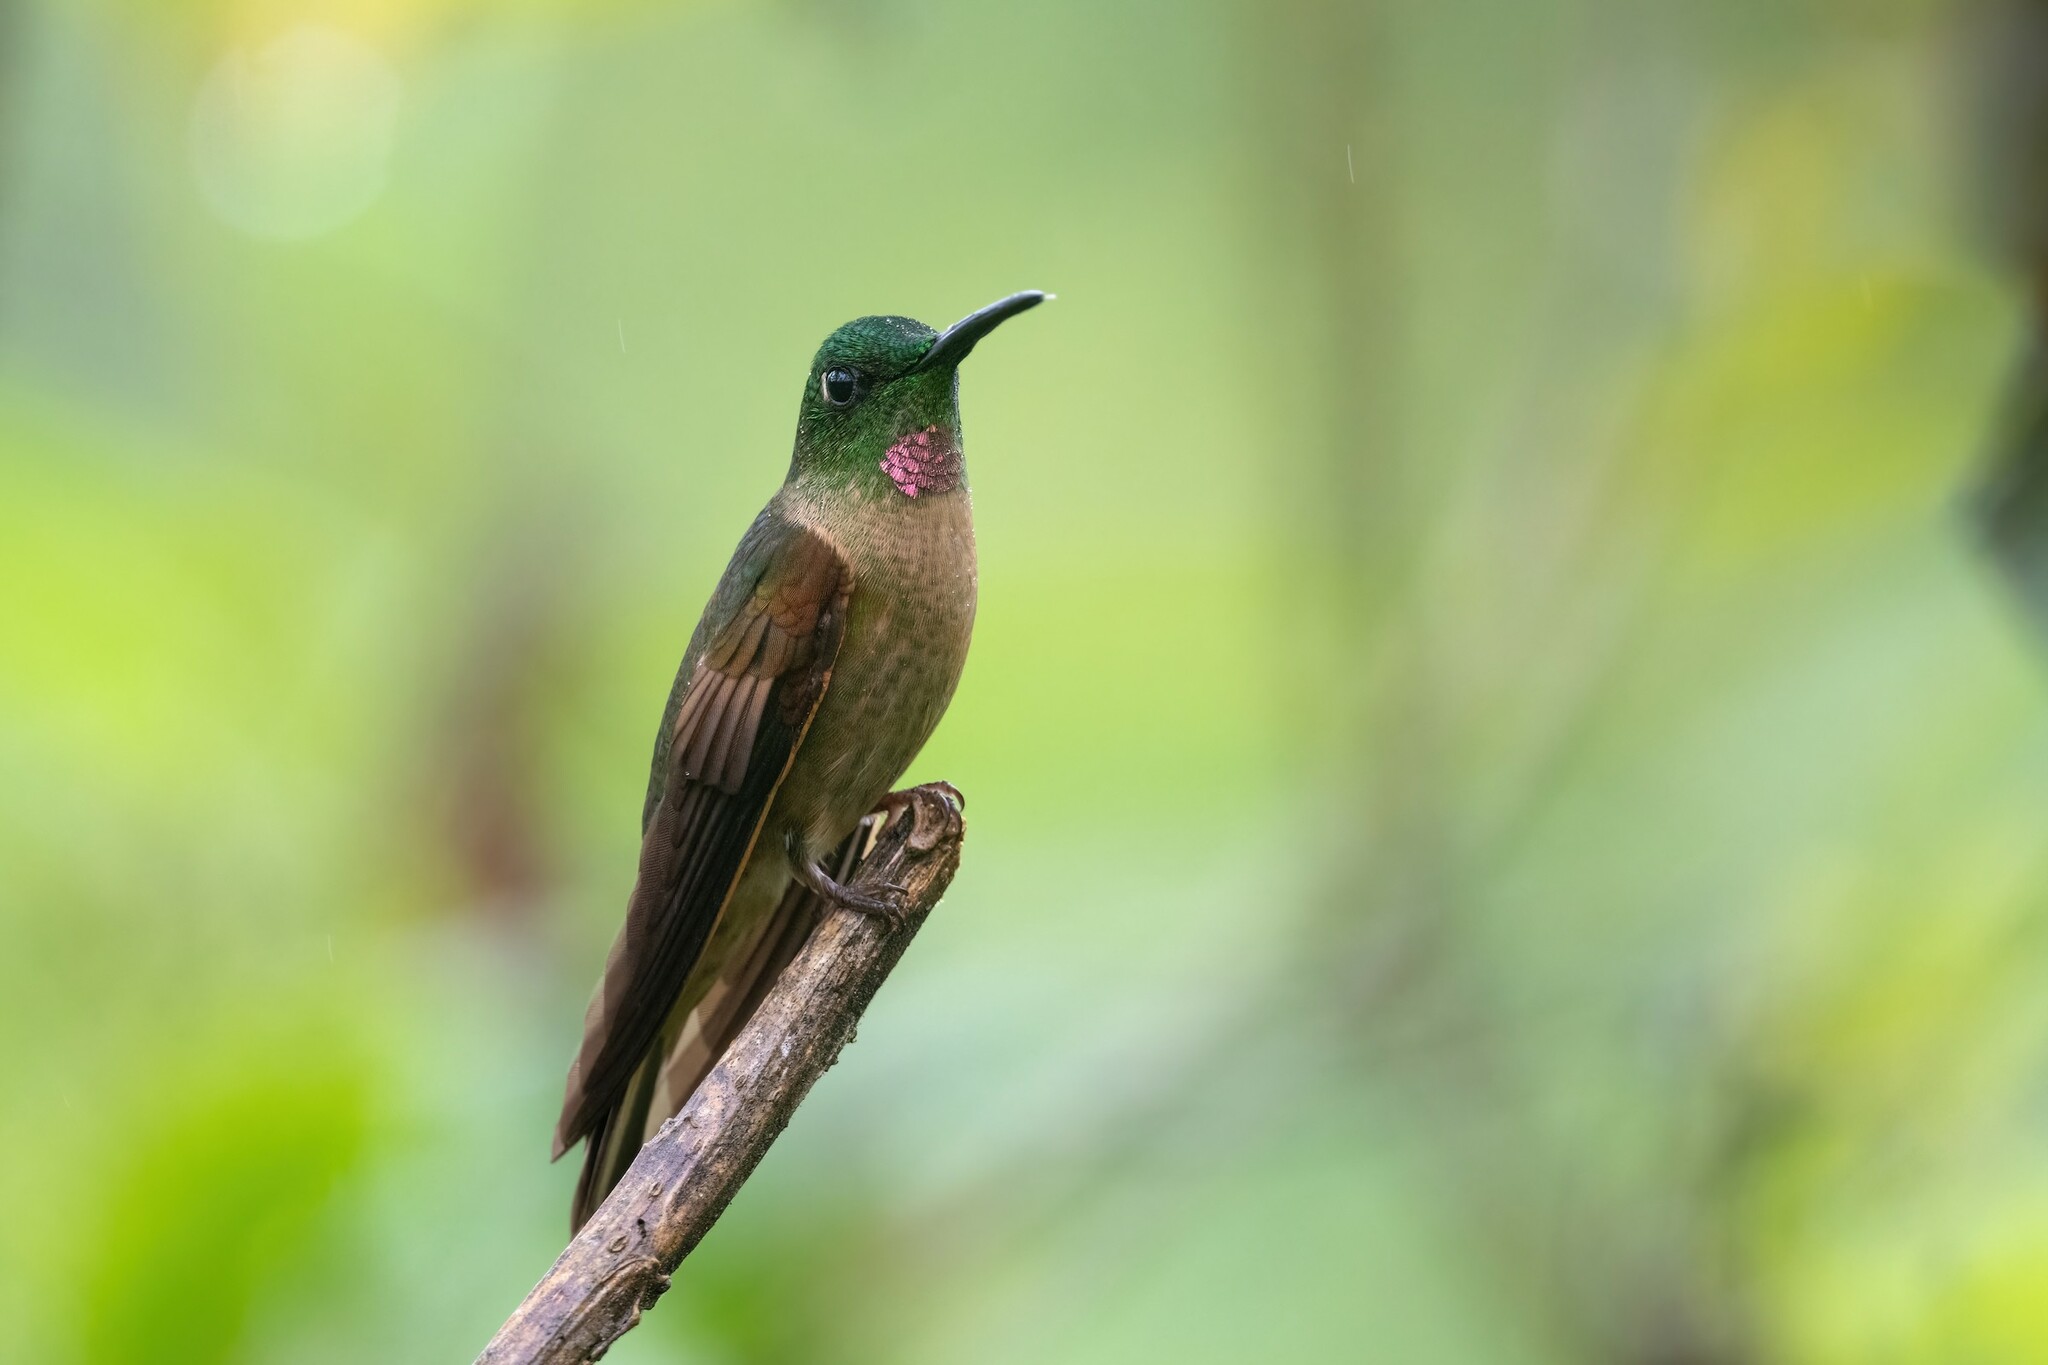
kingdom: Animalia
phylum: Chordata
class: Aves
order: Apodiformes
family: Trochilidae
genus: Heliodoxa
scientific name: Heliodoxa rubinoides
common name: Fawn-breasted brilliant
